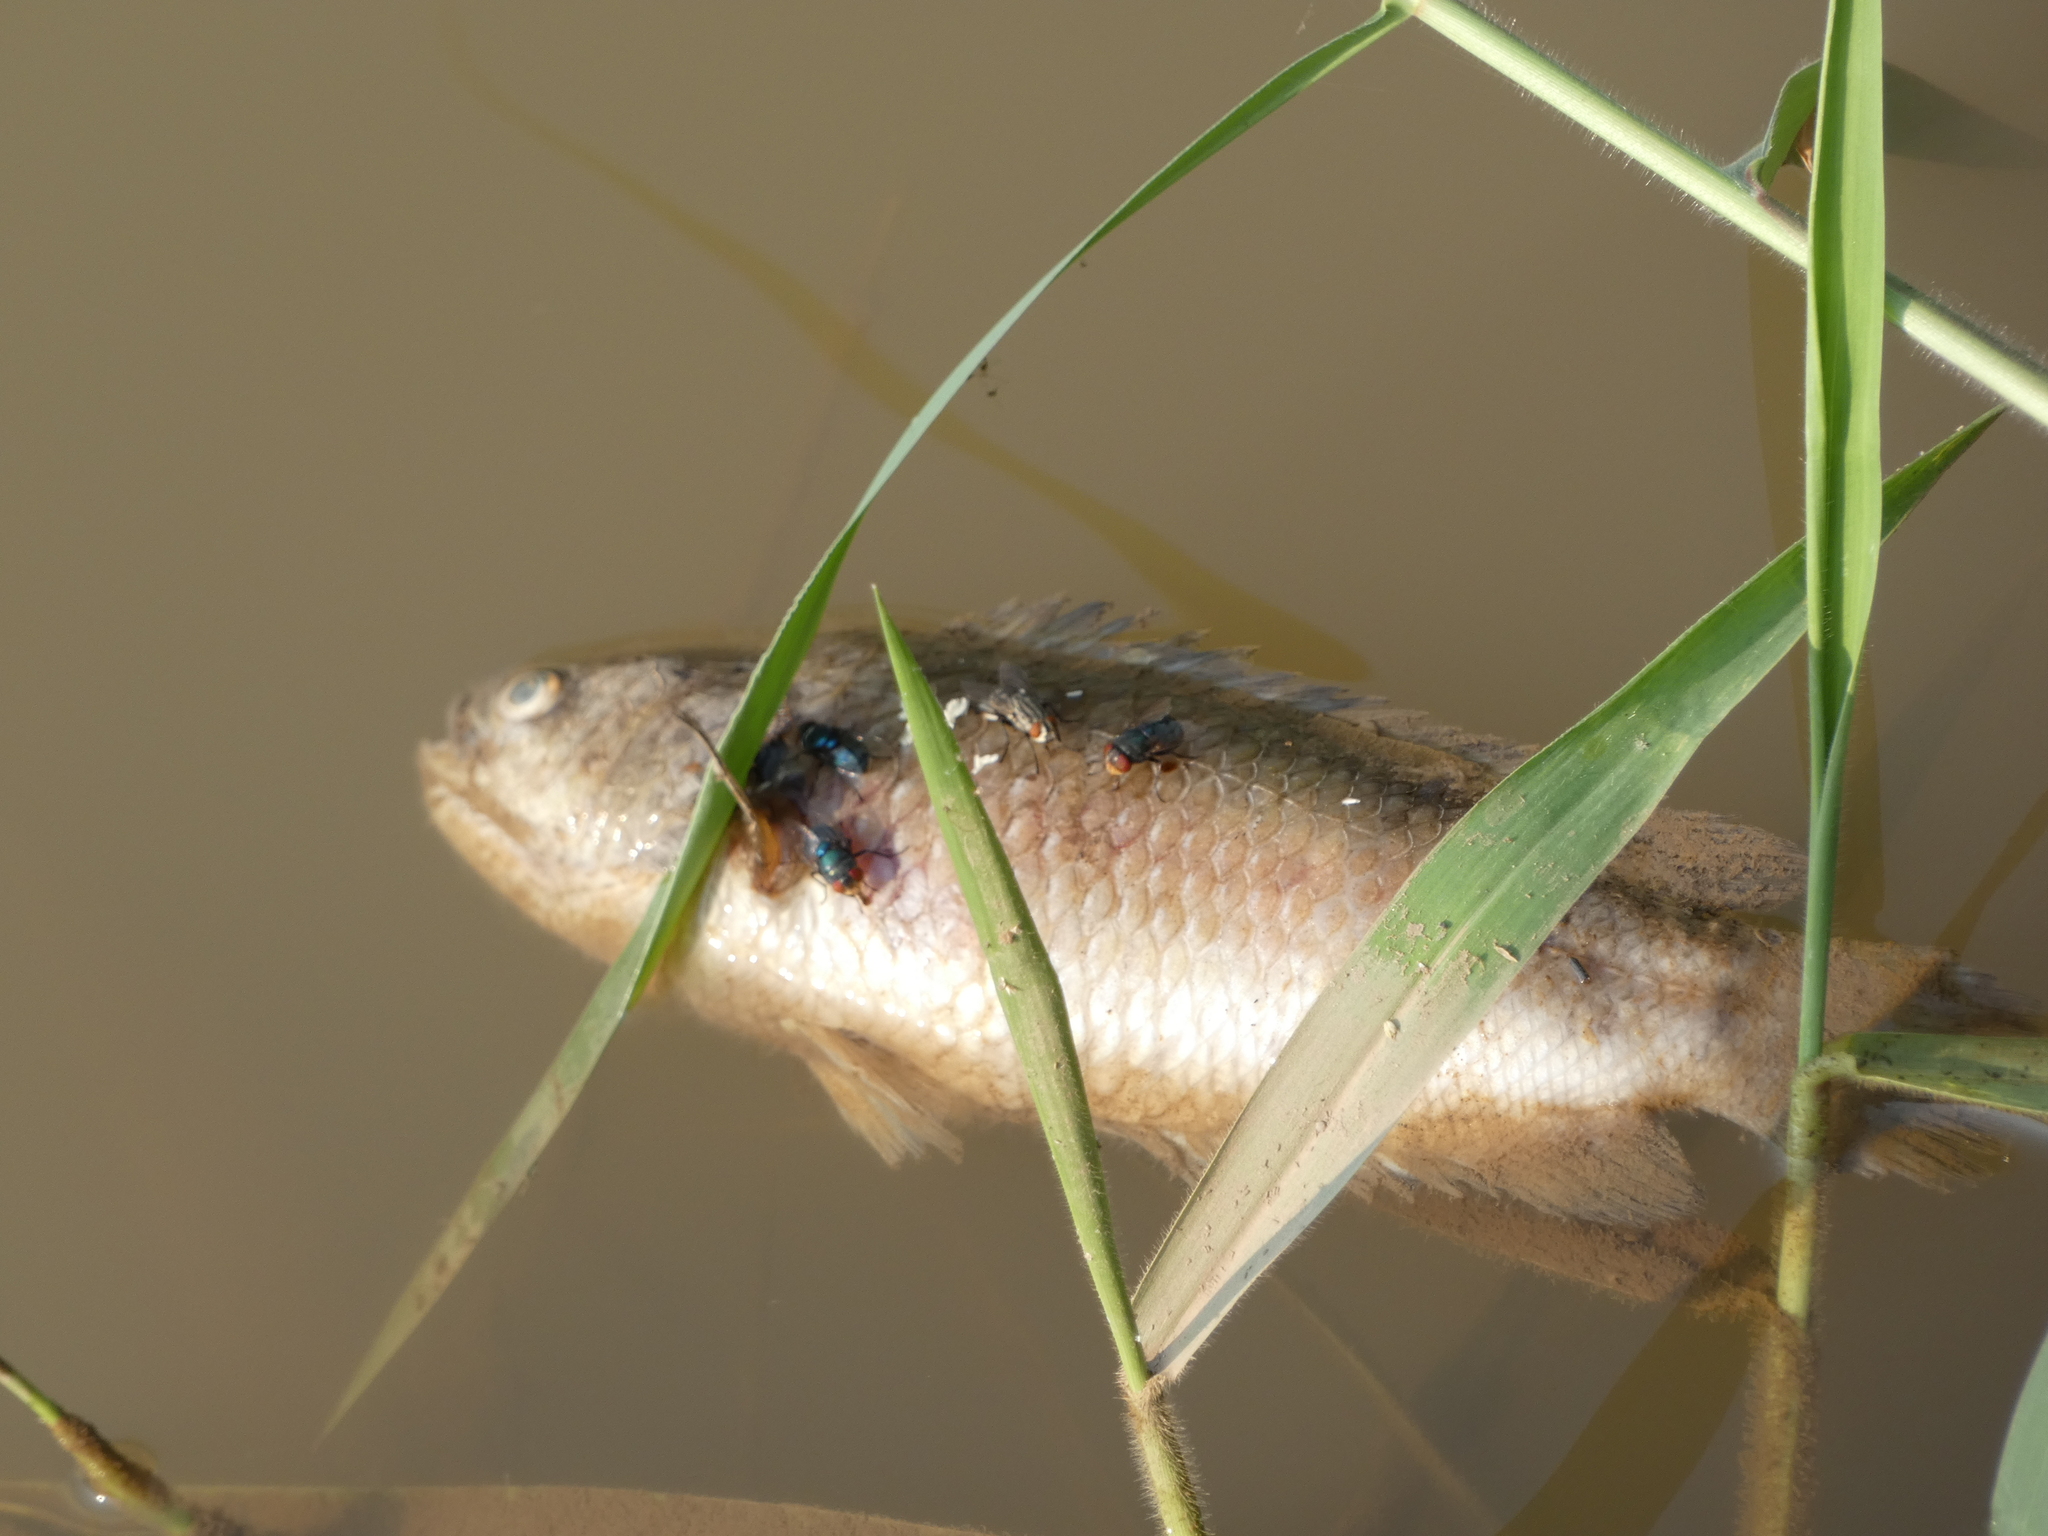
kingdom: Animalia
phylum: Chordata
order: Perciformes
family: Anabantidae
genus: Anabas
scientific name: Anabas testudineus
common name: Climbing perch
